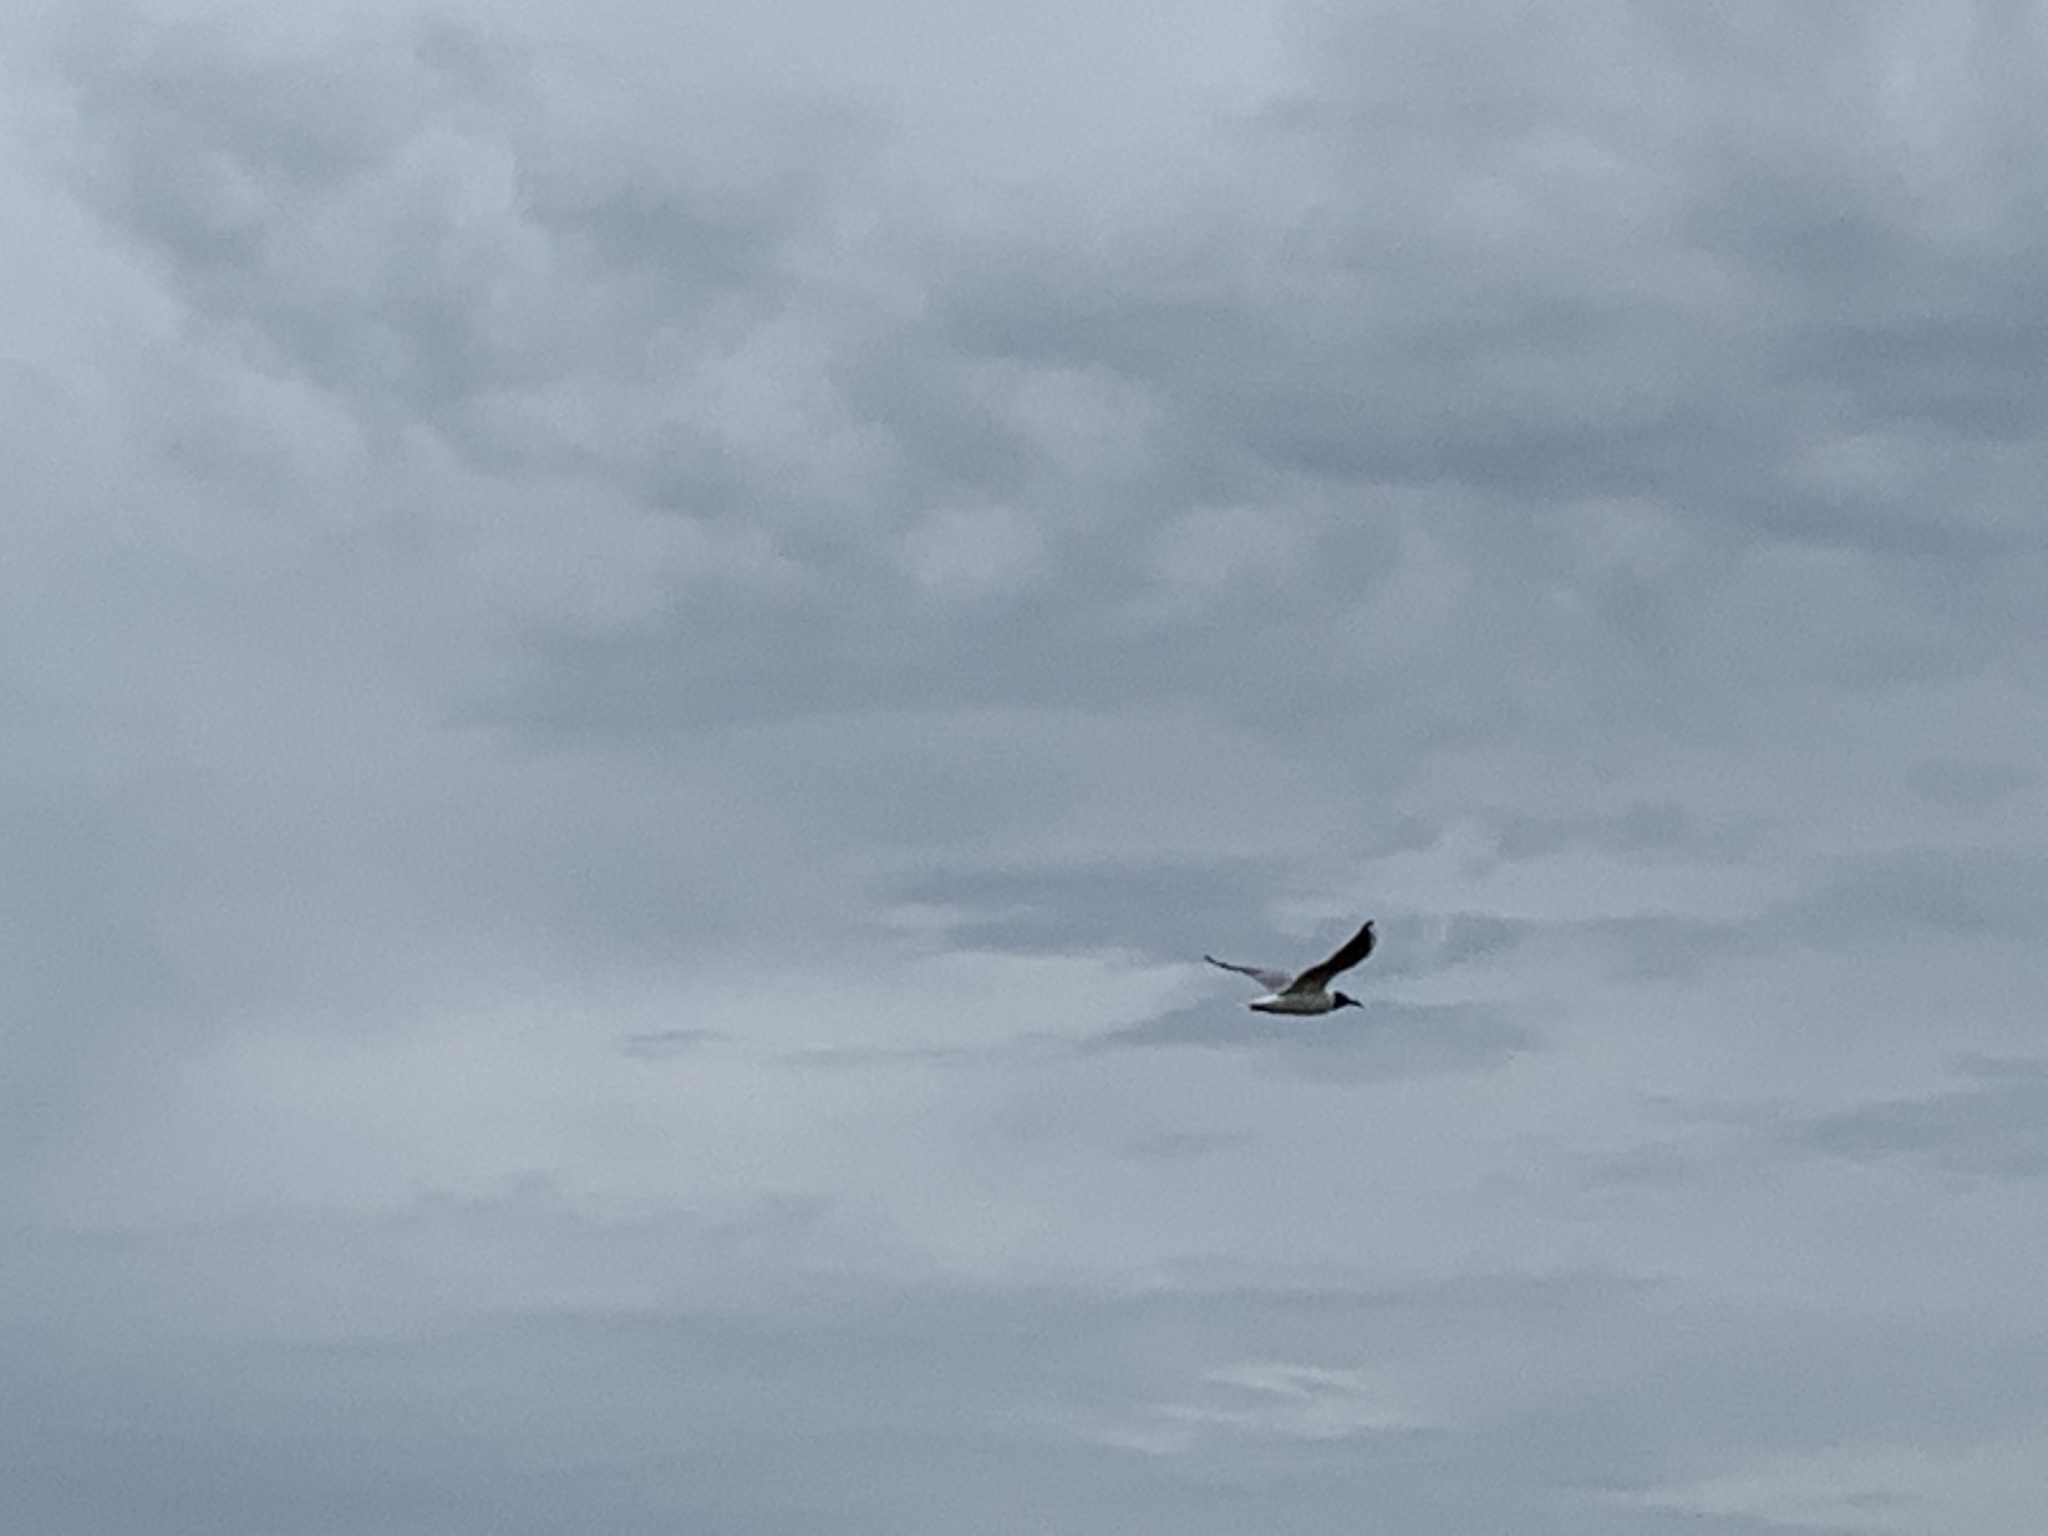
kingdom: Animalia
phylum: Chordata
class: Aves
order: Charadriiformes
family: Laridae
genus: Chroicocephalus
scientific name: Chroicocephalus ridibundus
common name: Black-headed gull
